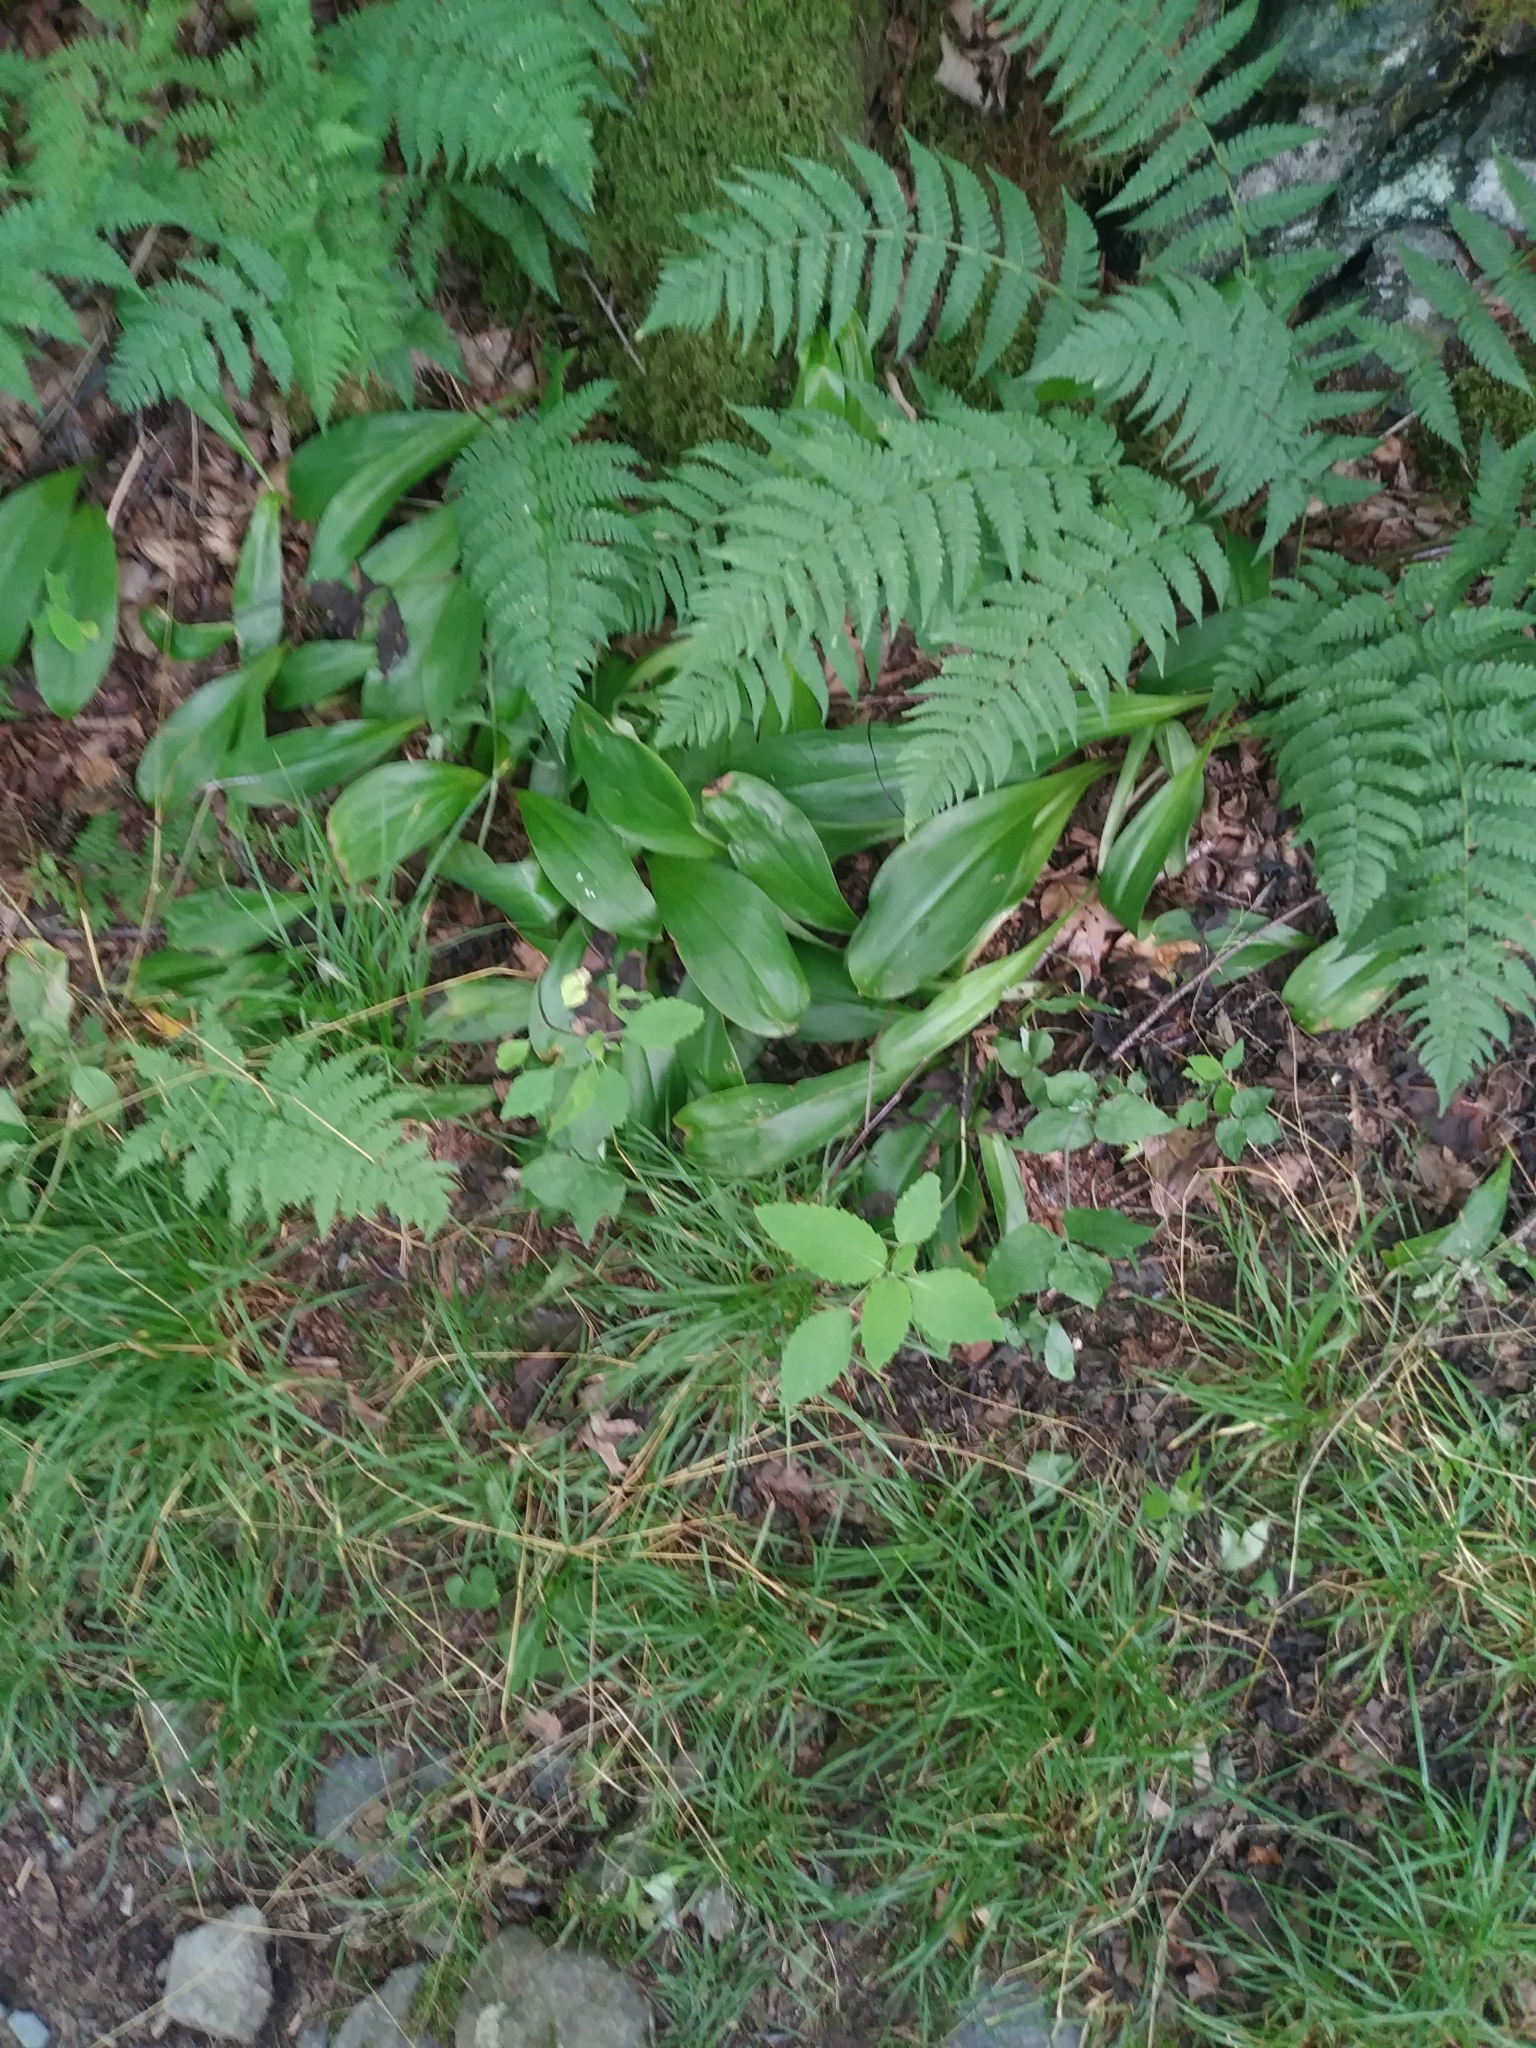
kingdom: Plantae
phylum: Tracheophyta
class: Liliopsida
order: Liliales
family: Liliaceae
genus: Clintonia
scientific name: Clintonia borealis
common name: Yellow clintonia
